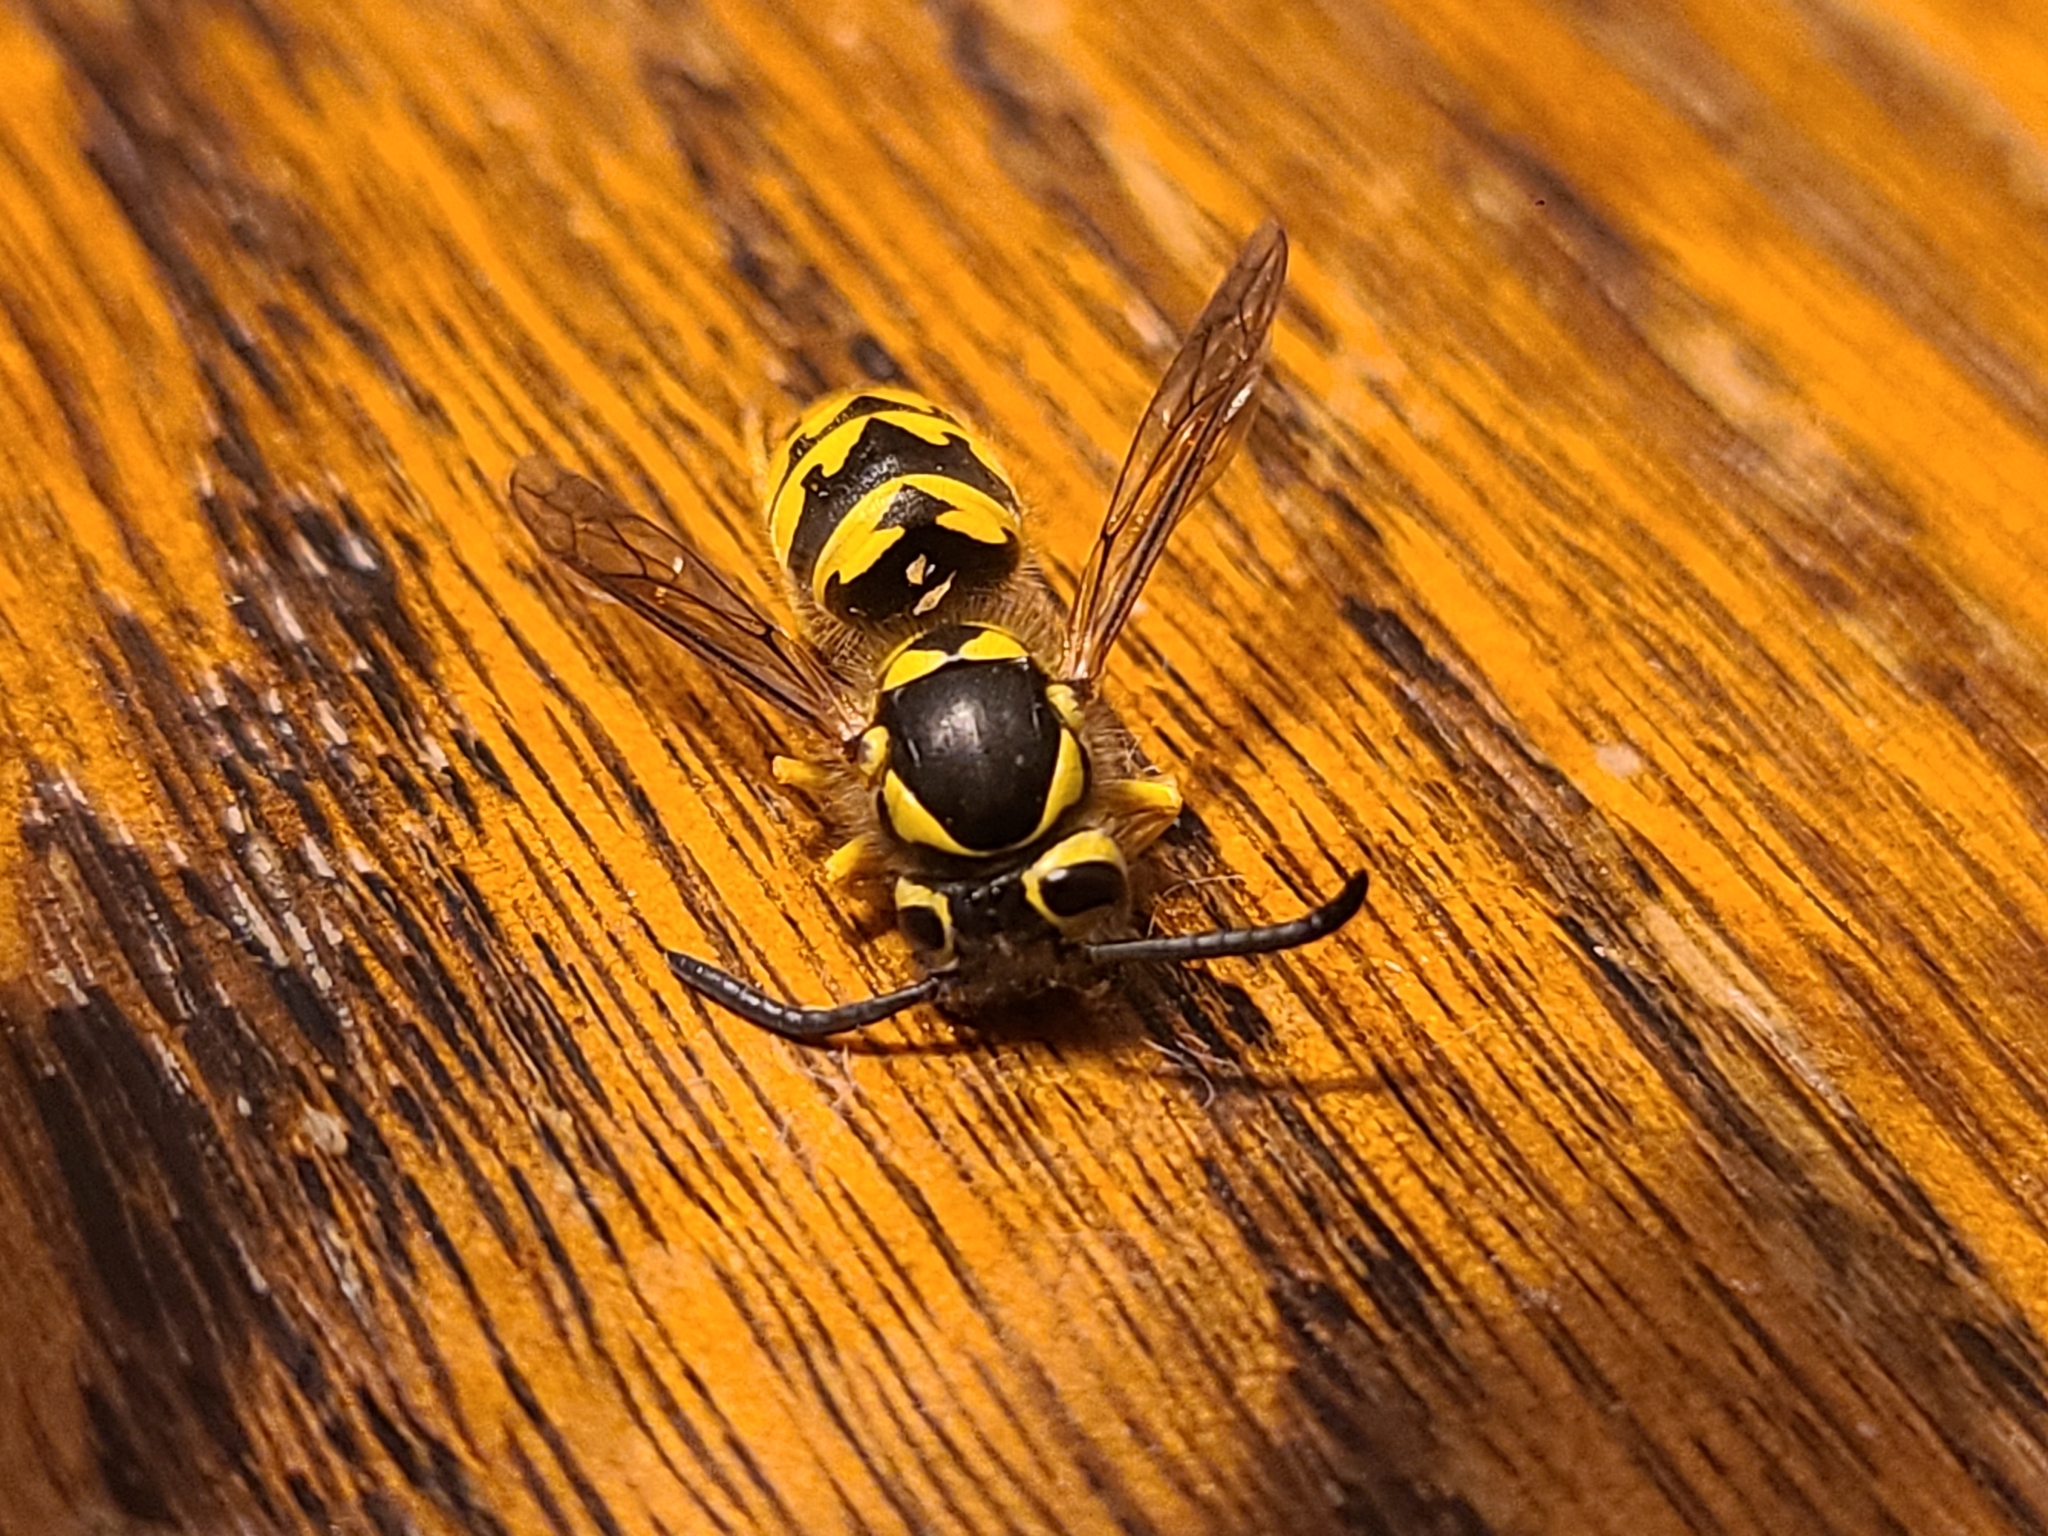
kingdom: Animalia
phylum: Arthropoda
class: Insecta
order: Hymenoptera
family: Vespidae
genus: Vespula
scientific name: Vespula pensylvanica
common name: Western yellowjacket
